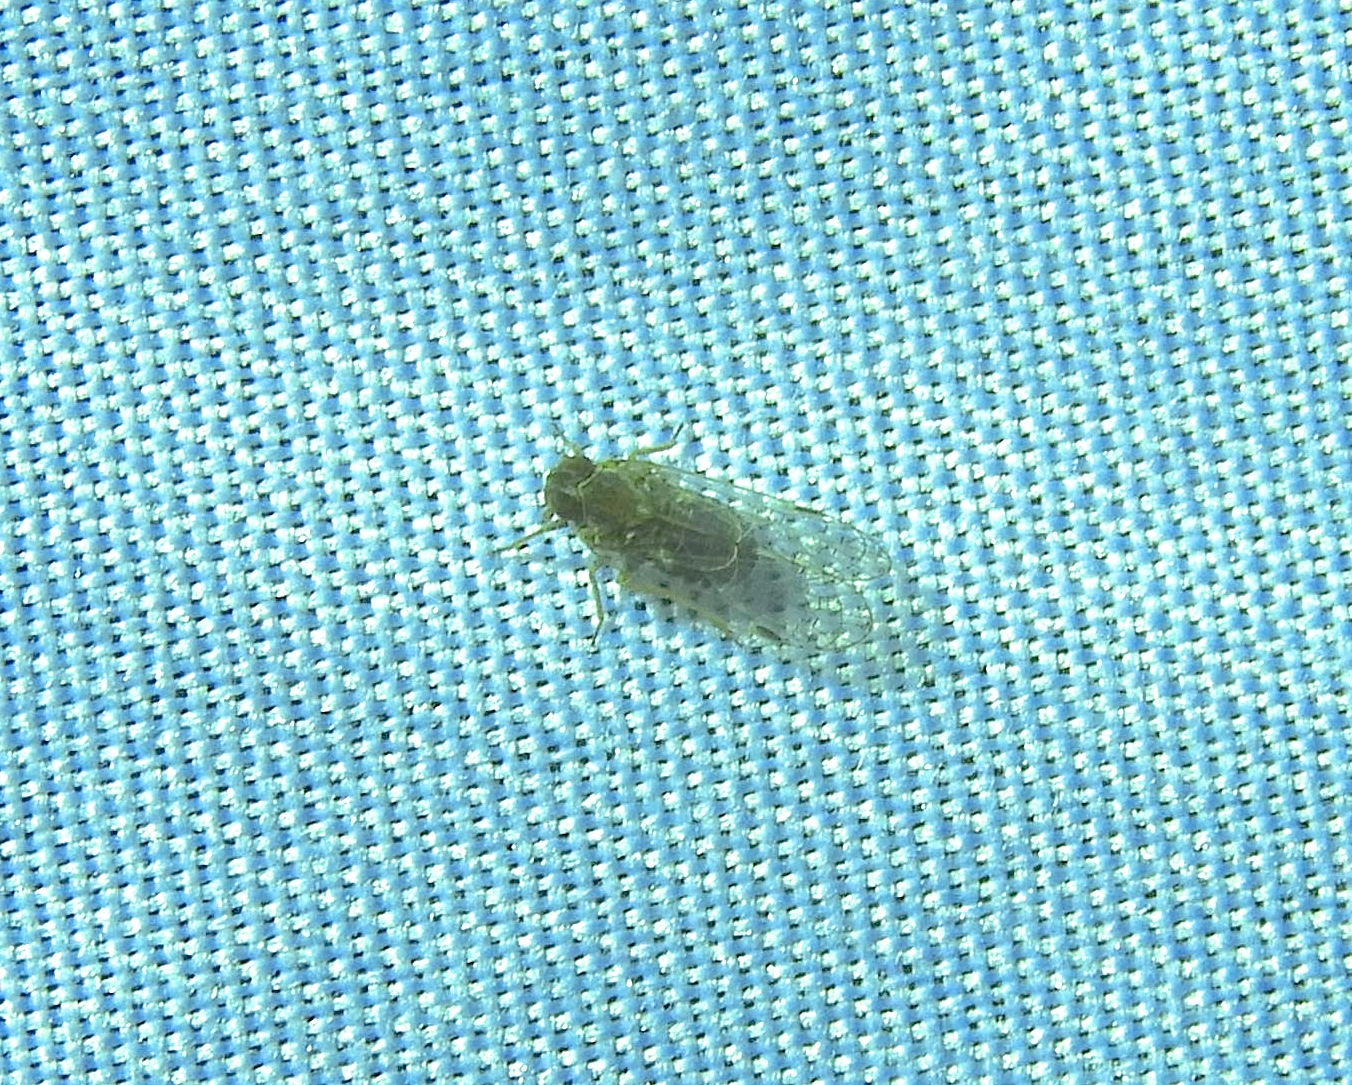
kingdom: Animalia
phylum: Arthropoda
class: Insecta
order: Hemiptera
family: Cixiidae
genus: Melanoliarus
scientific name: Melanoliarus
